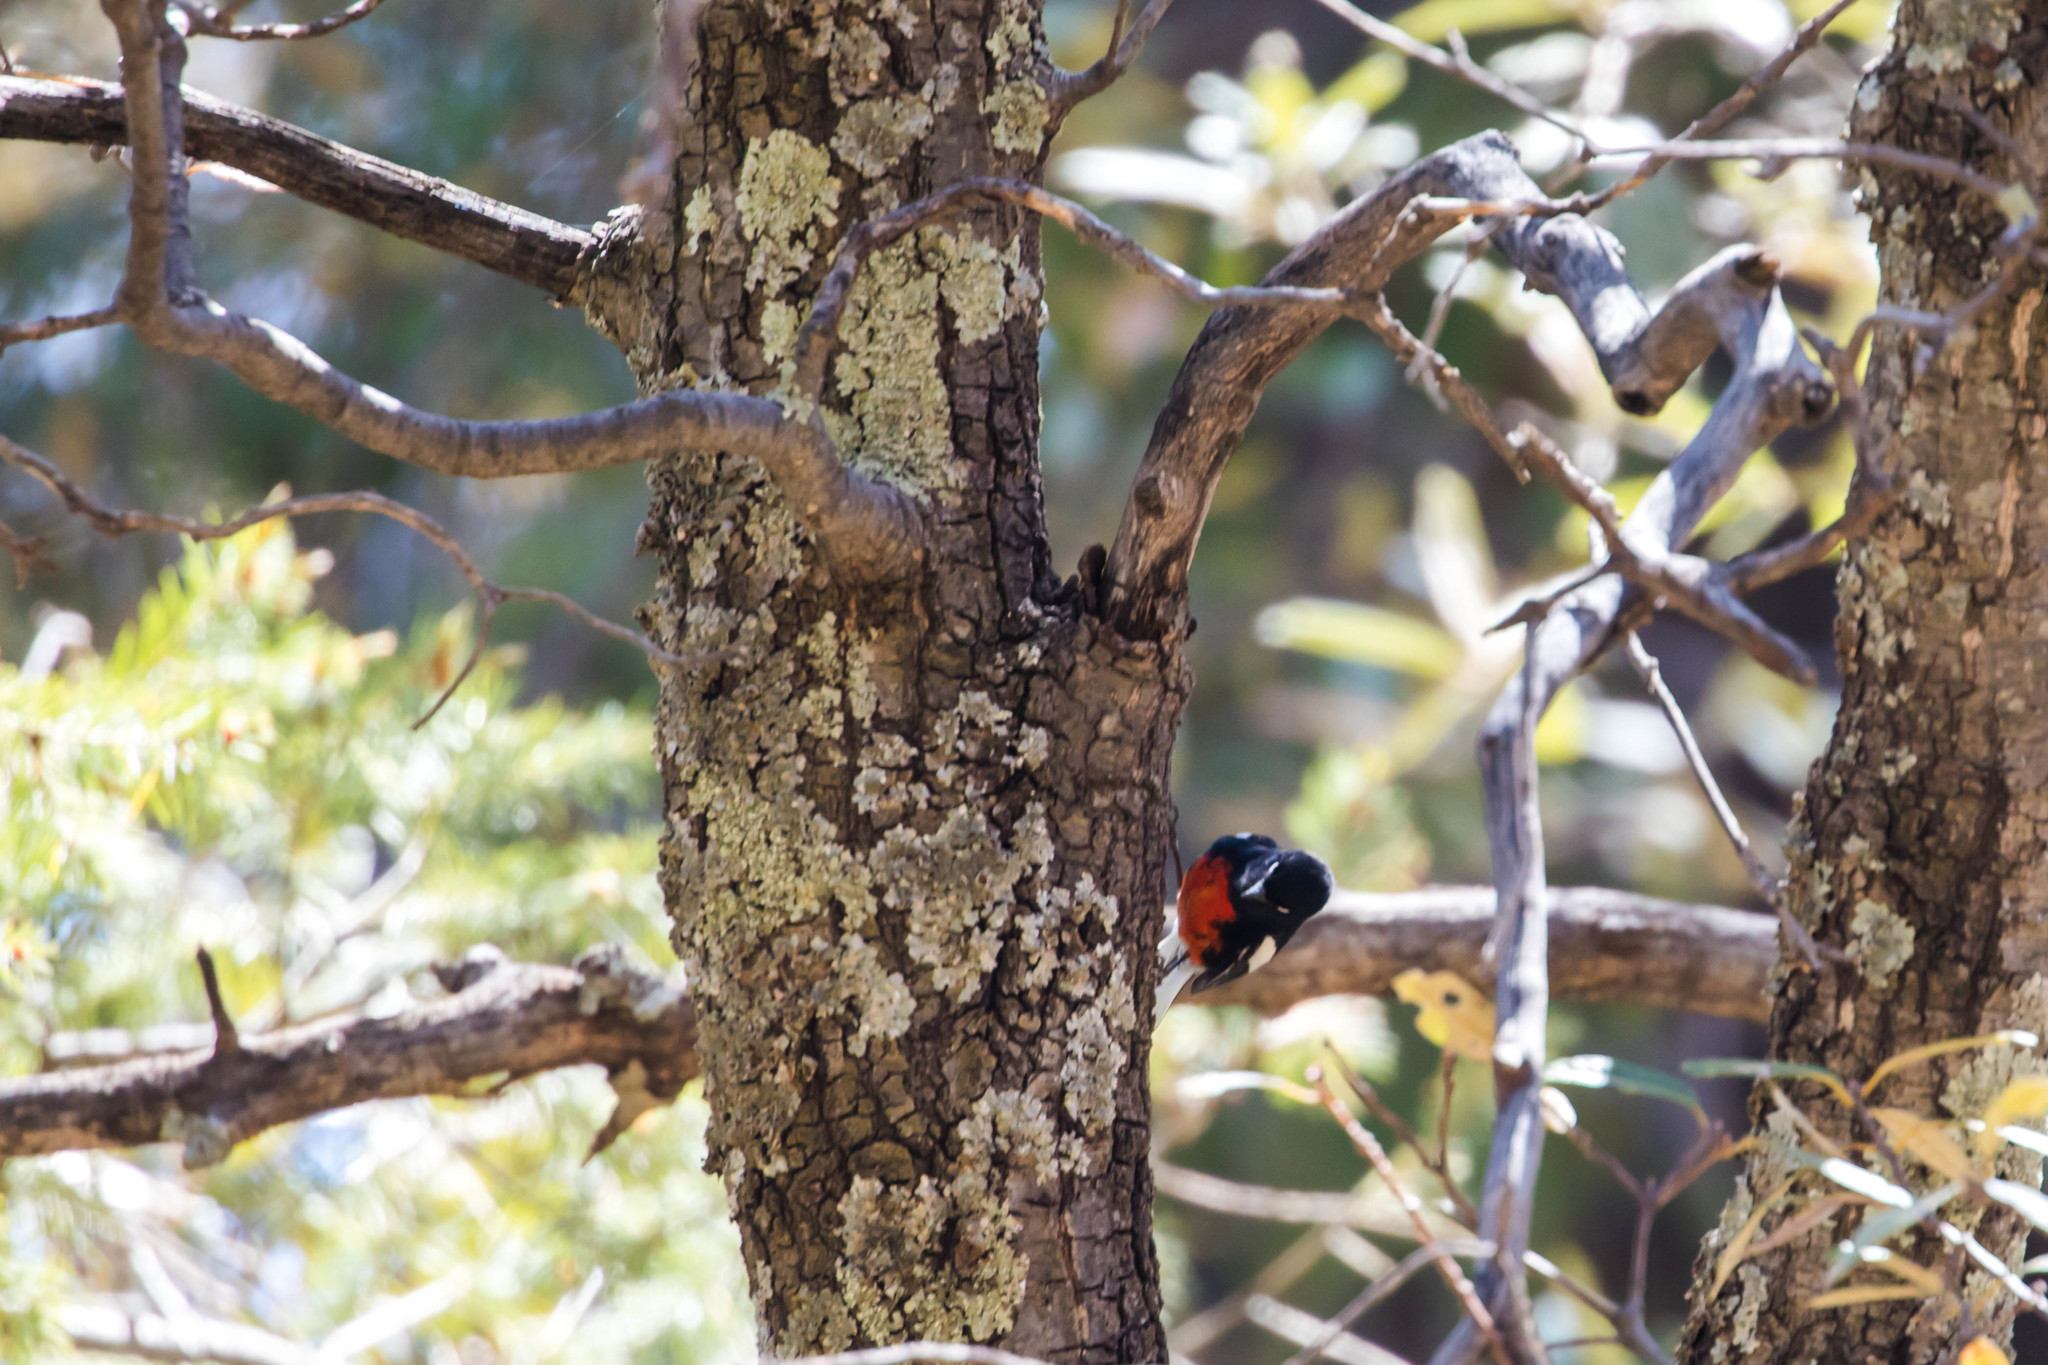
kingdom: Animalia
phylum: Chordata
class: Aves
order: Passeriformes
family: Parulidae
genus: Myioborus
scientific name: Myioborus pictus
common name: Painted whitestart
